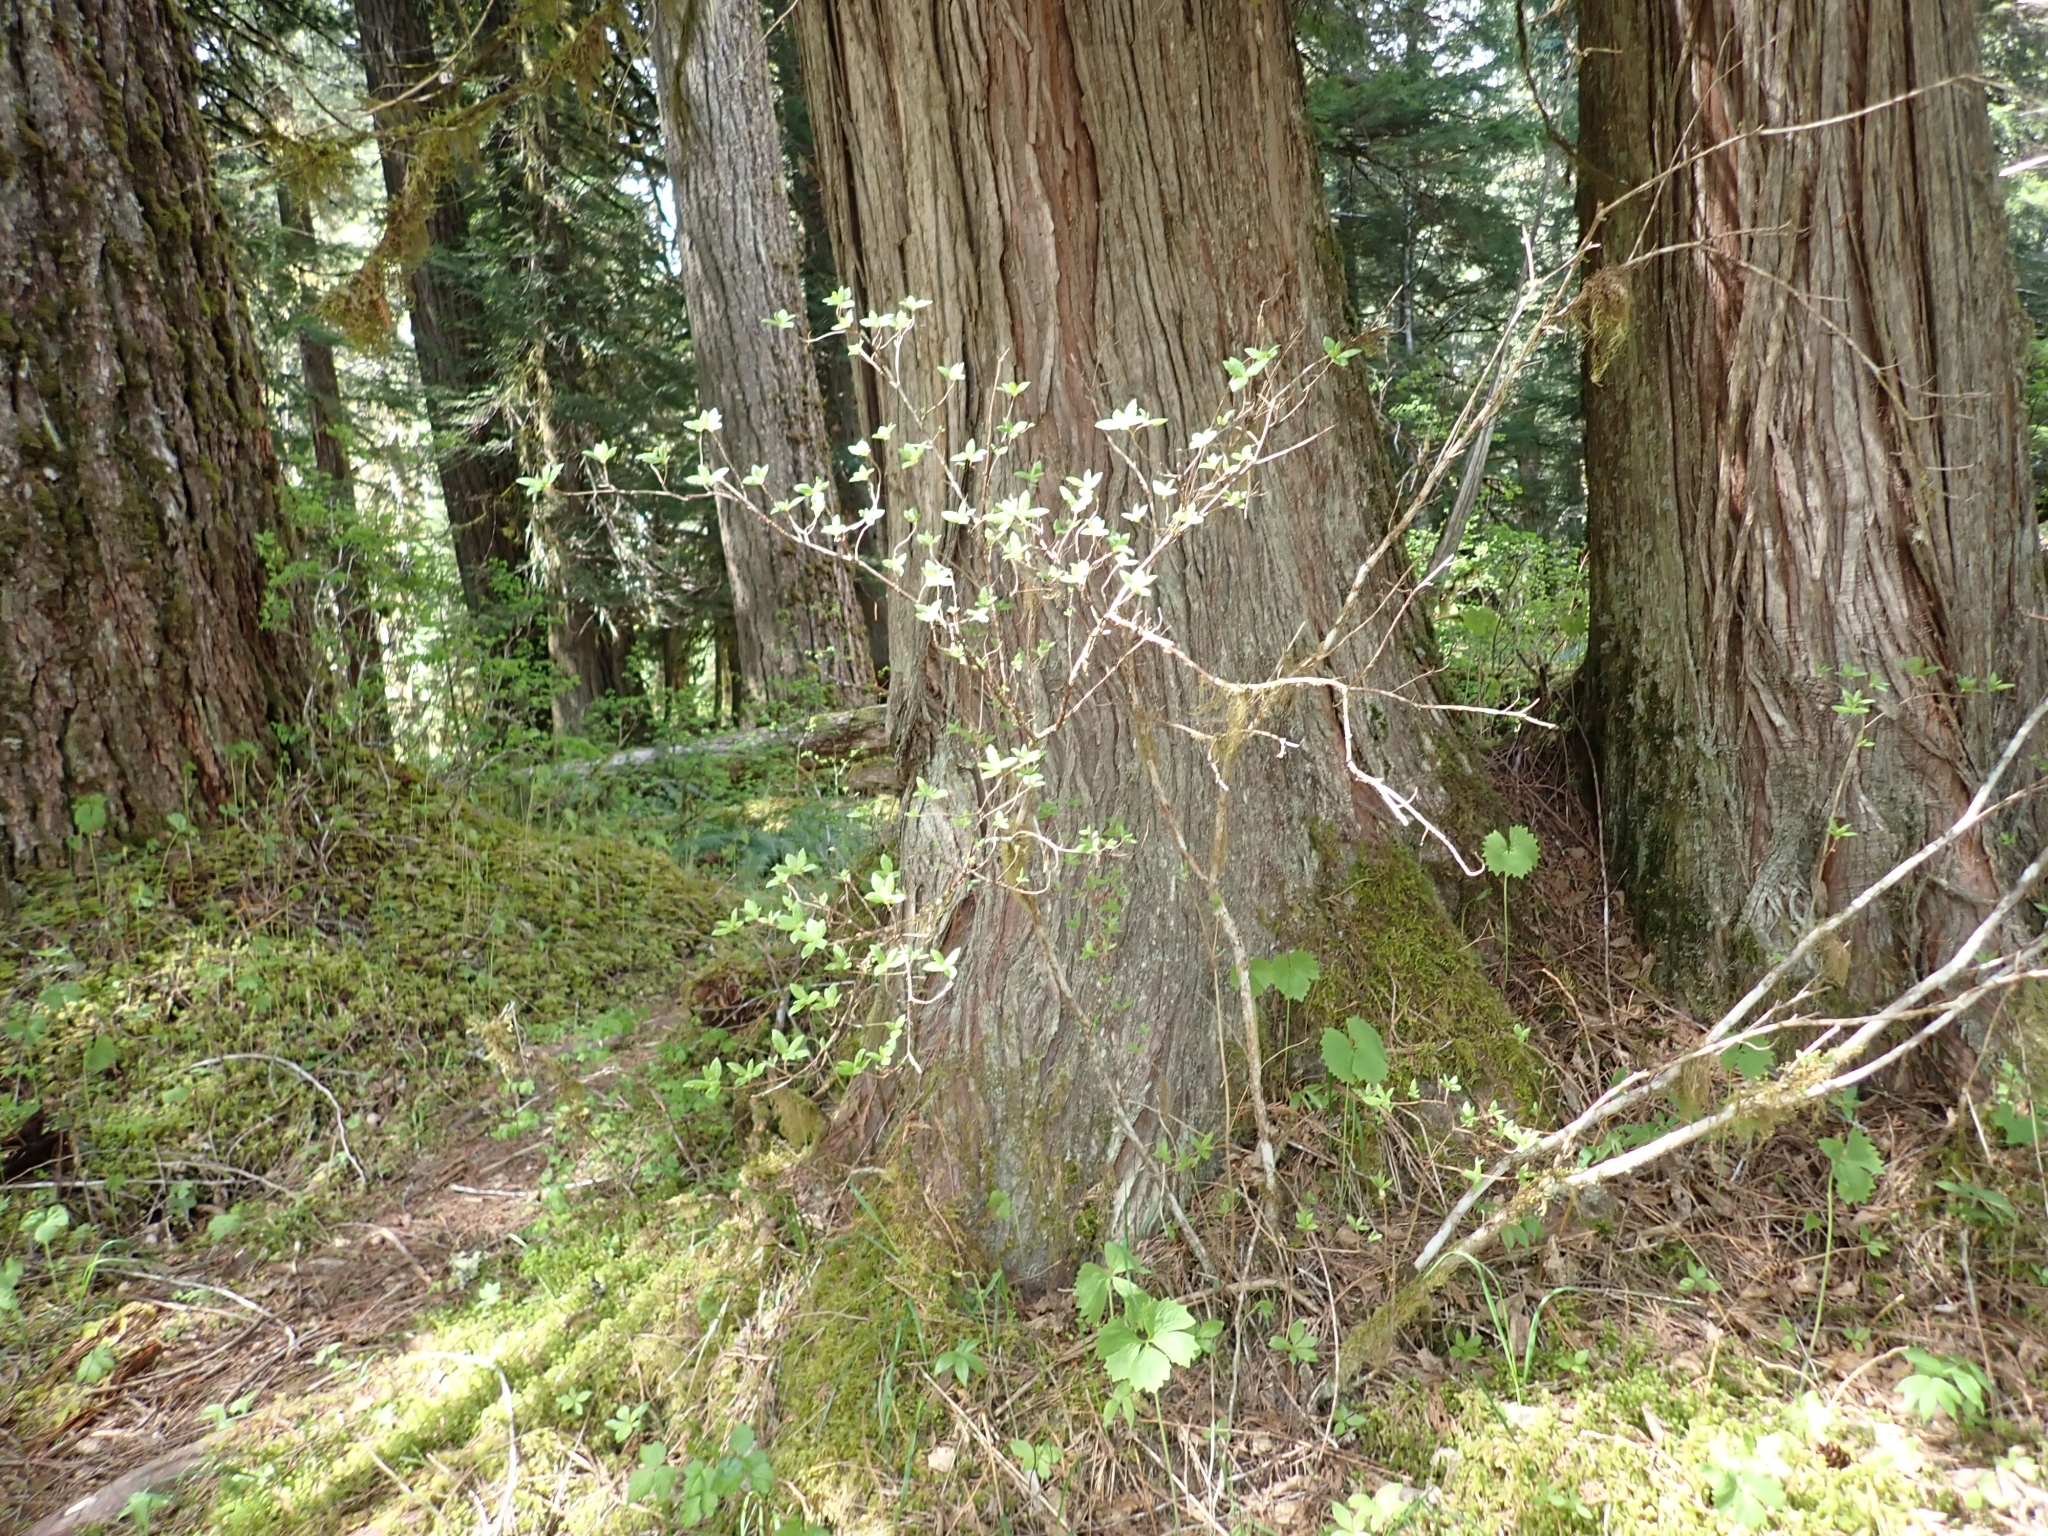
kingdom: Plantae
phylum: Tracheophyta
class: Magnoliopsida
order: Ericales
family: Ericaceae
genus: Rhododendron
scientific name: Rhododendron menziesii
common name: Pacific menziesia
